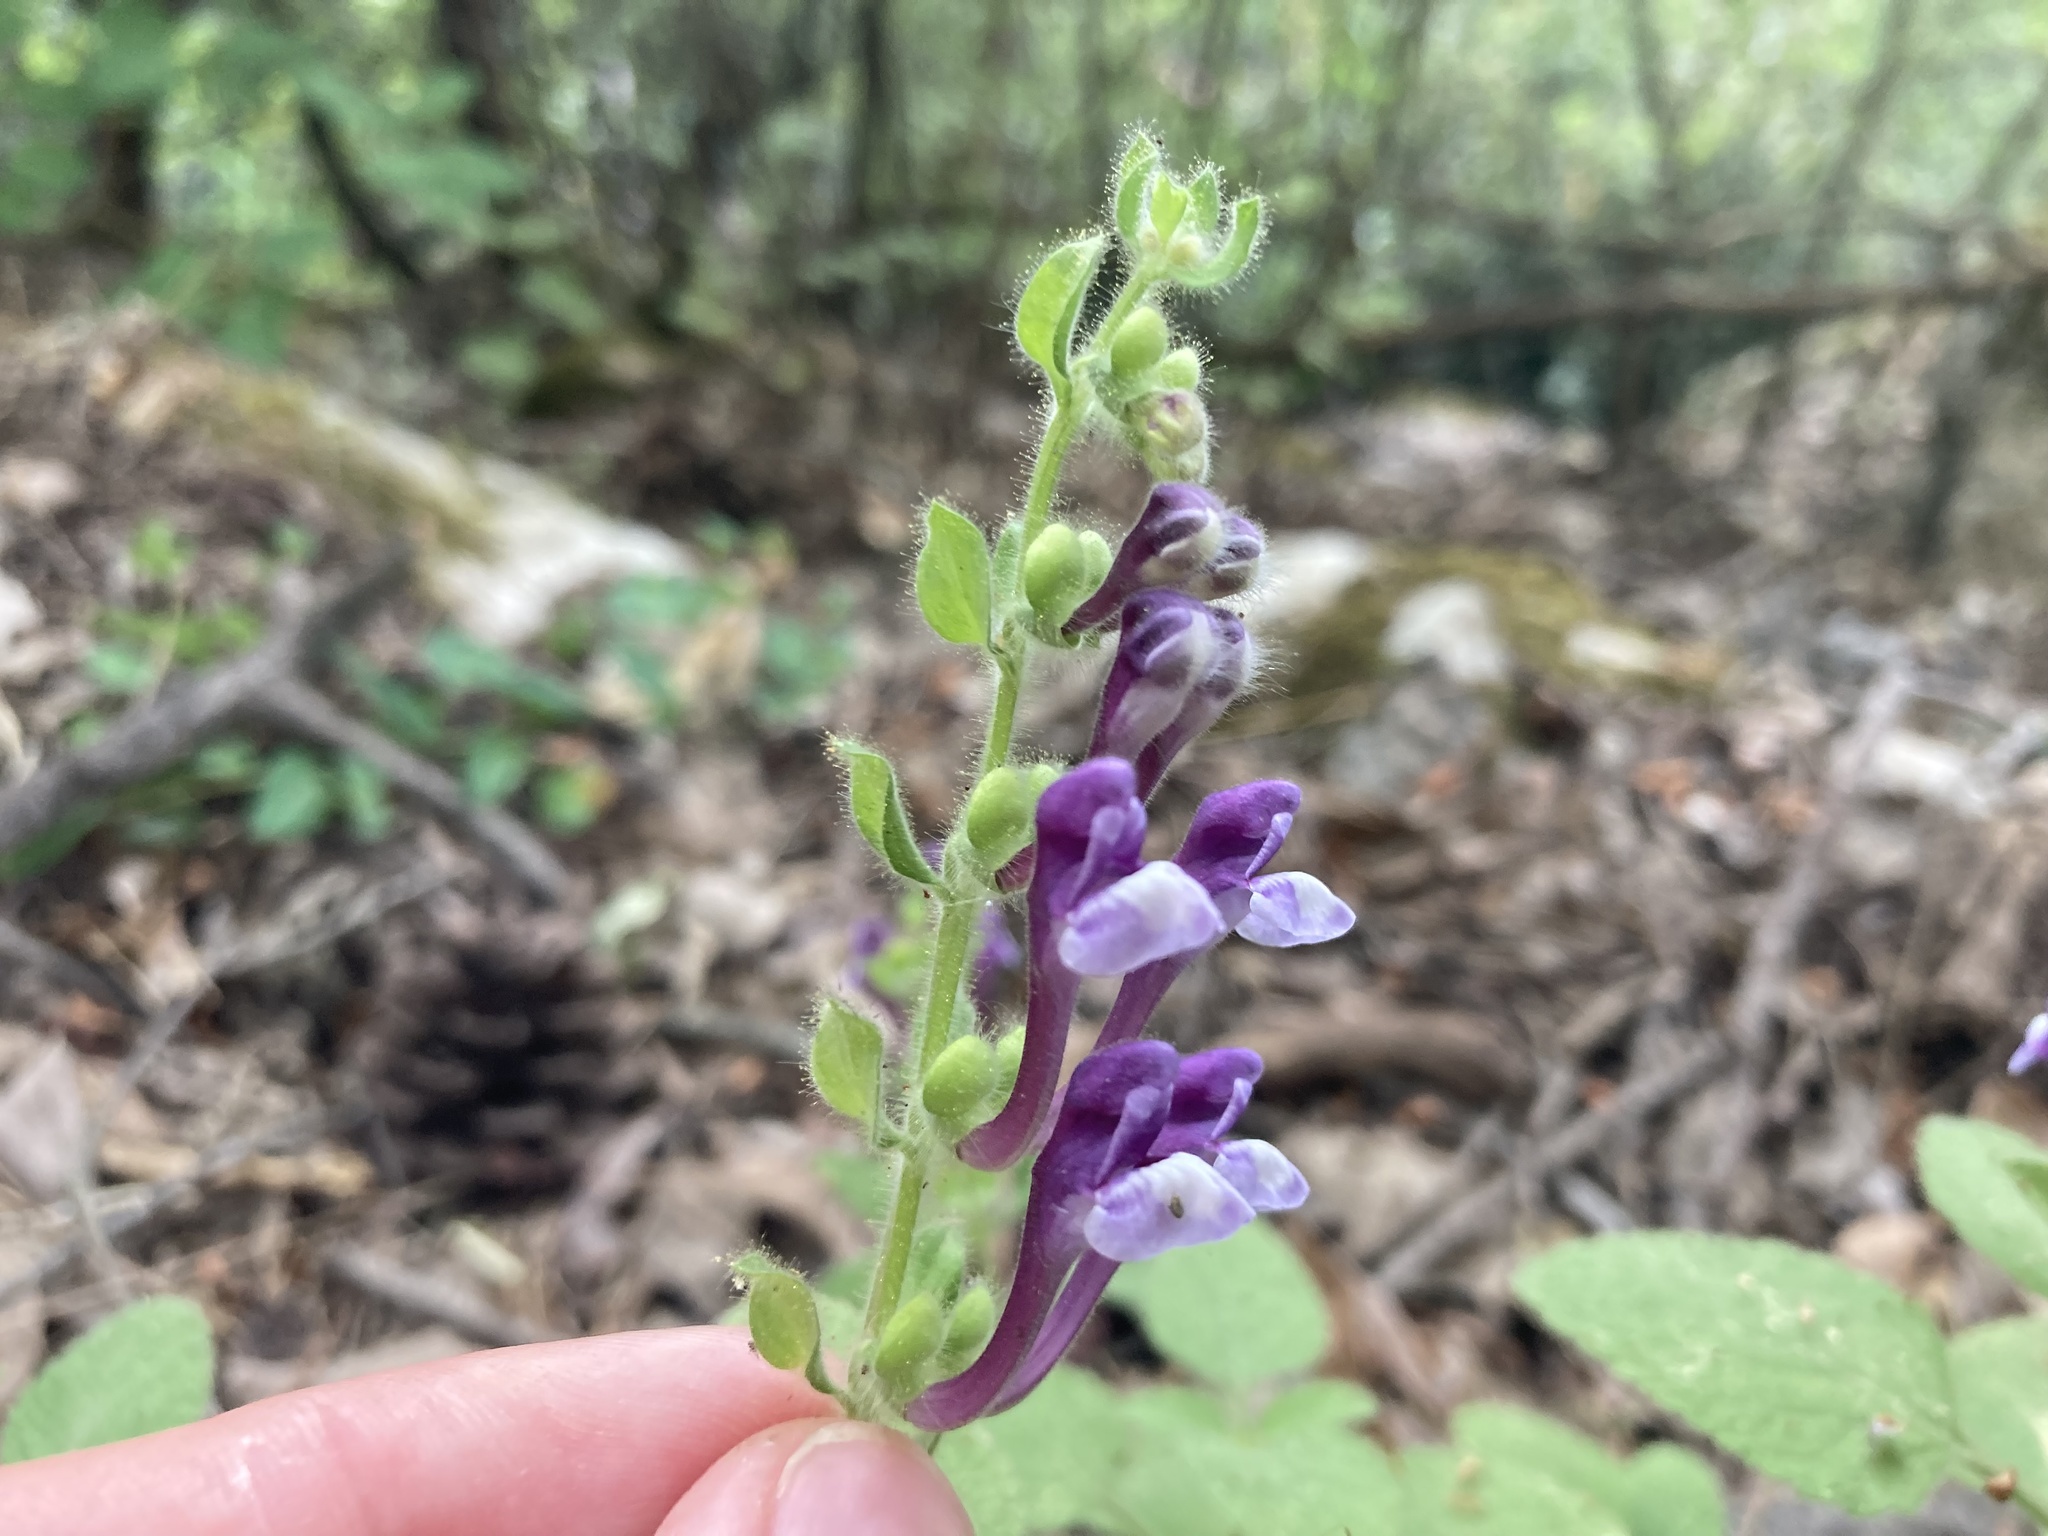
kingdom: Plantae
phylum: Tracheophyta
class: Magnoliopsida
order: Lamiales
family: Lamiaceae
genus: Scutellaria
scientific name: Scutellaria brevibracteata
